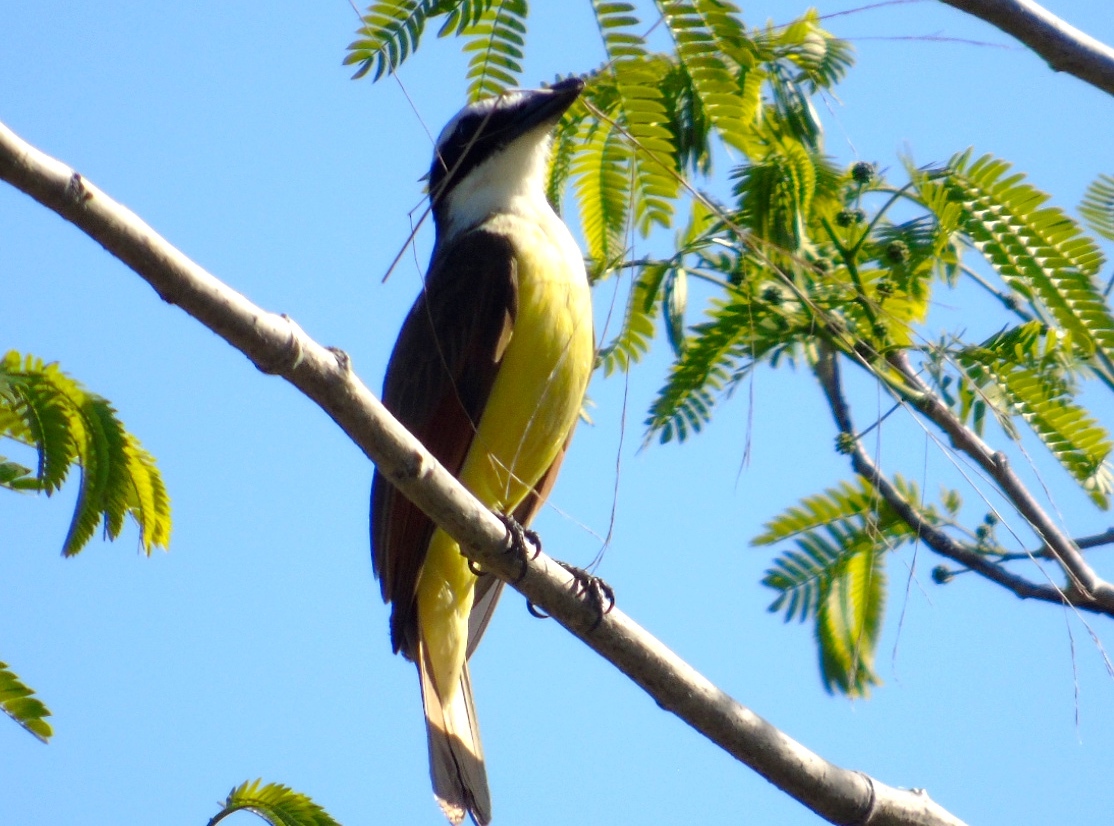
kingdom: Animalia
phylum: Chordata
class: Aves
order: Passeriformes
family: Tyrannidae
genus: Pitangus
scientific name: Pitangus sulphuratus
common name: Great kiskadee
